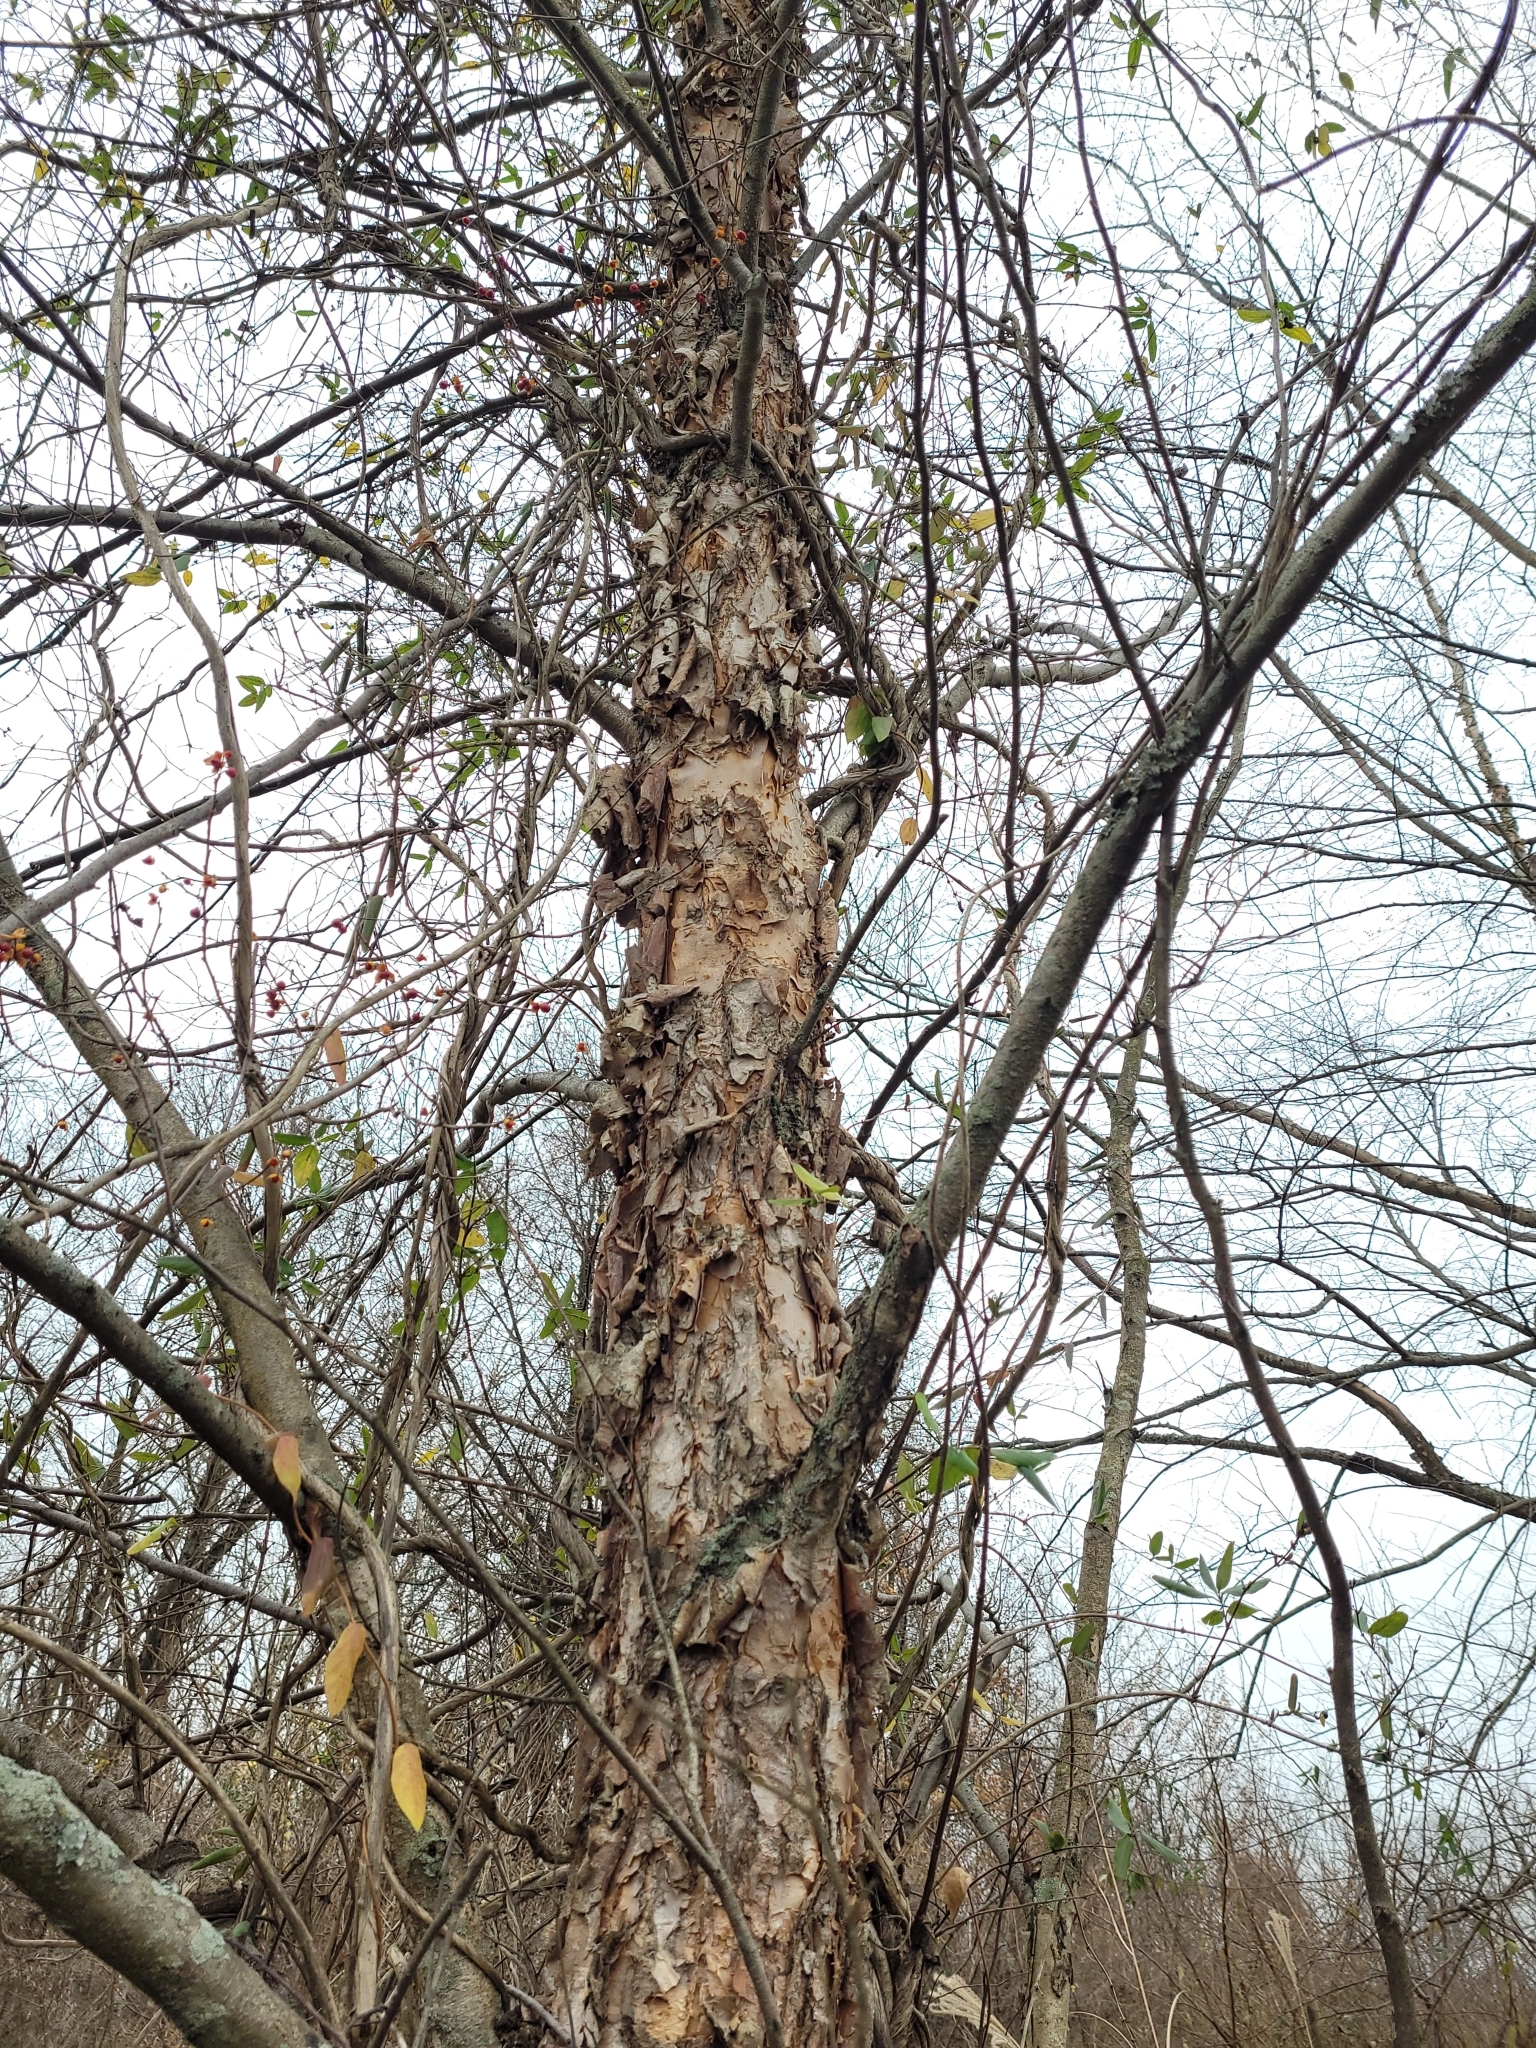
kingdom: Plantae
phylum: Tracheophyta
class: Magnoliopsida
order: Fagales
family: Betulaceae
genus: Betula
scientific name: Betula nigra
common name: Black birch
